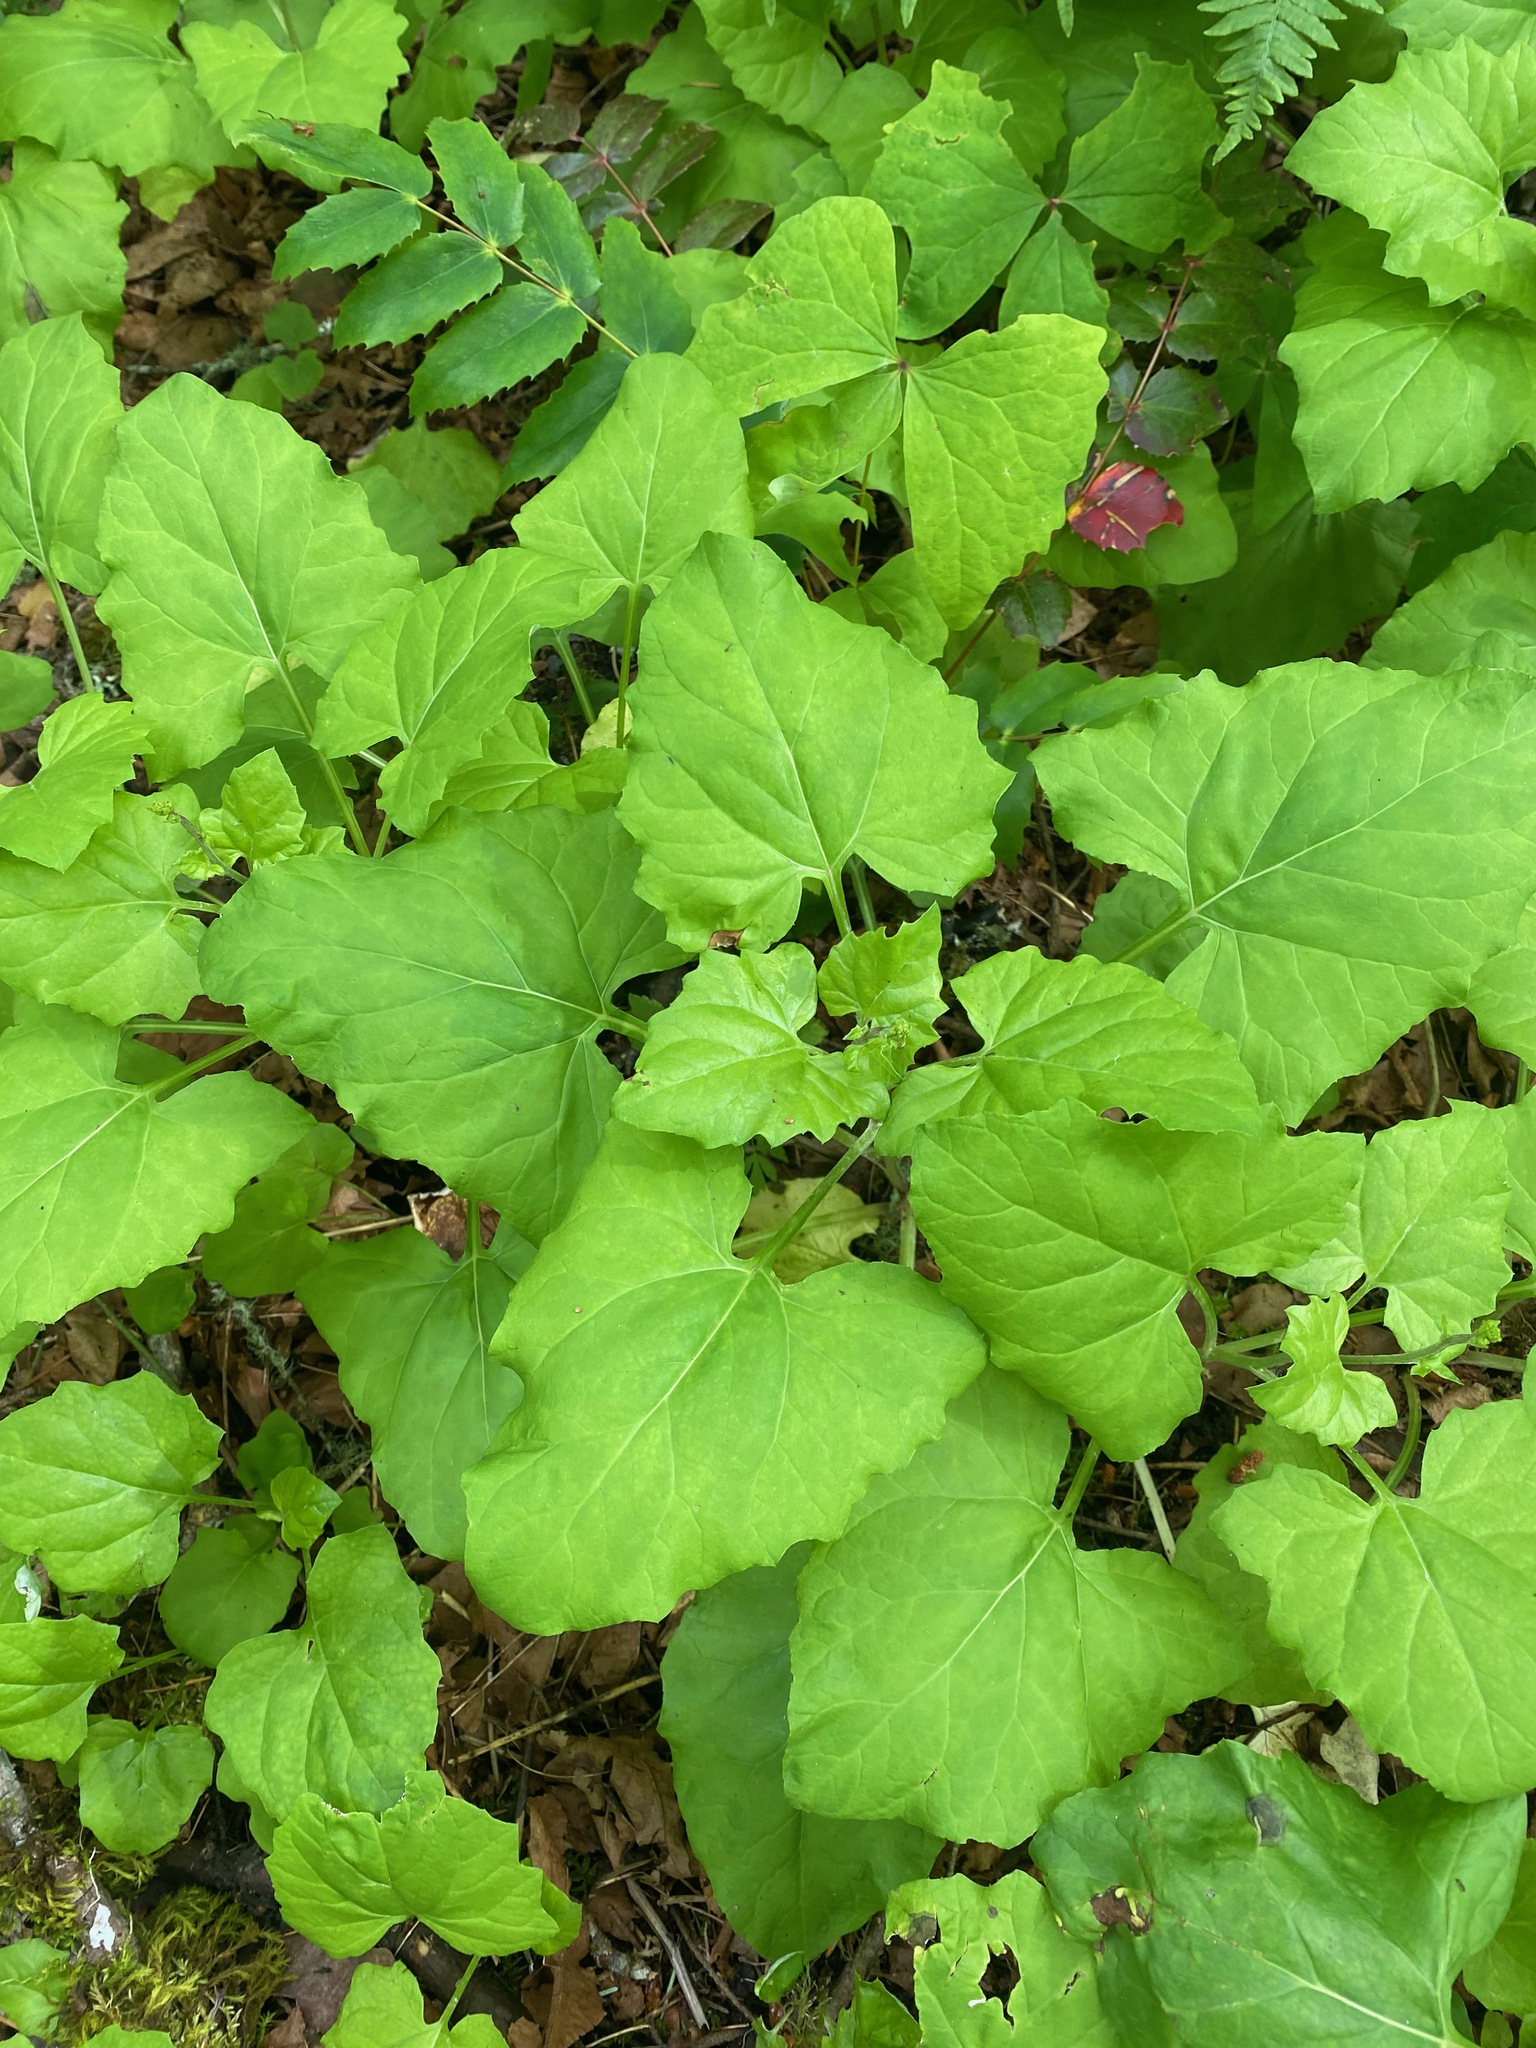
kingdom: Plantae
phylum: Tracheophyta
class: Magnoliopsida
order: Asterales
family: Asteraceae
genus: Adenocaulon
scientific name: Adenocaulon bicolor
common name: Trailplant
